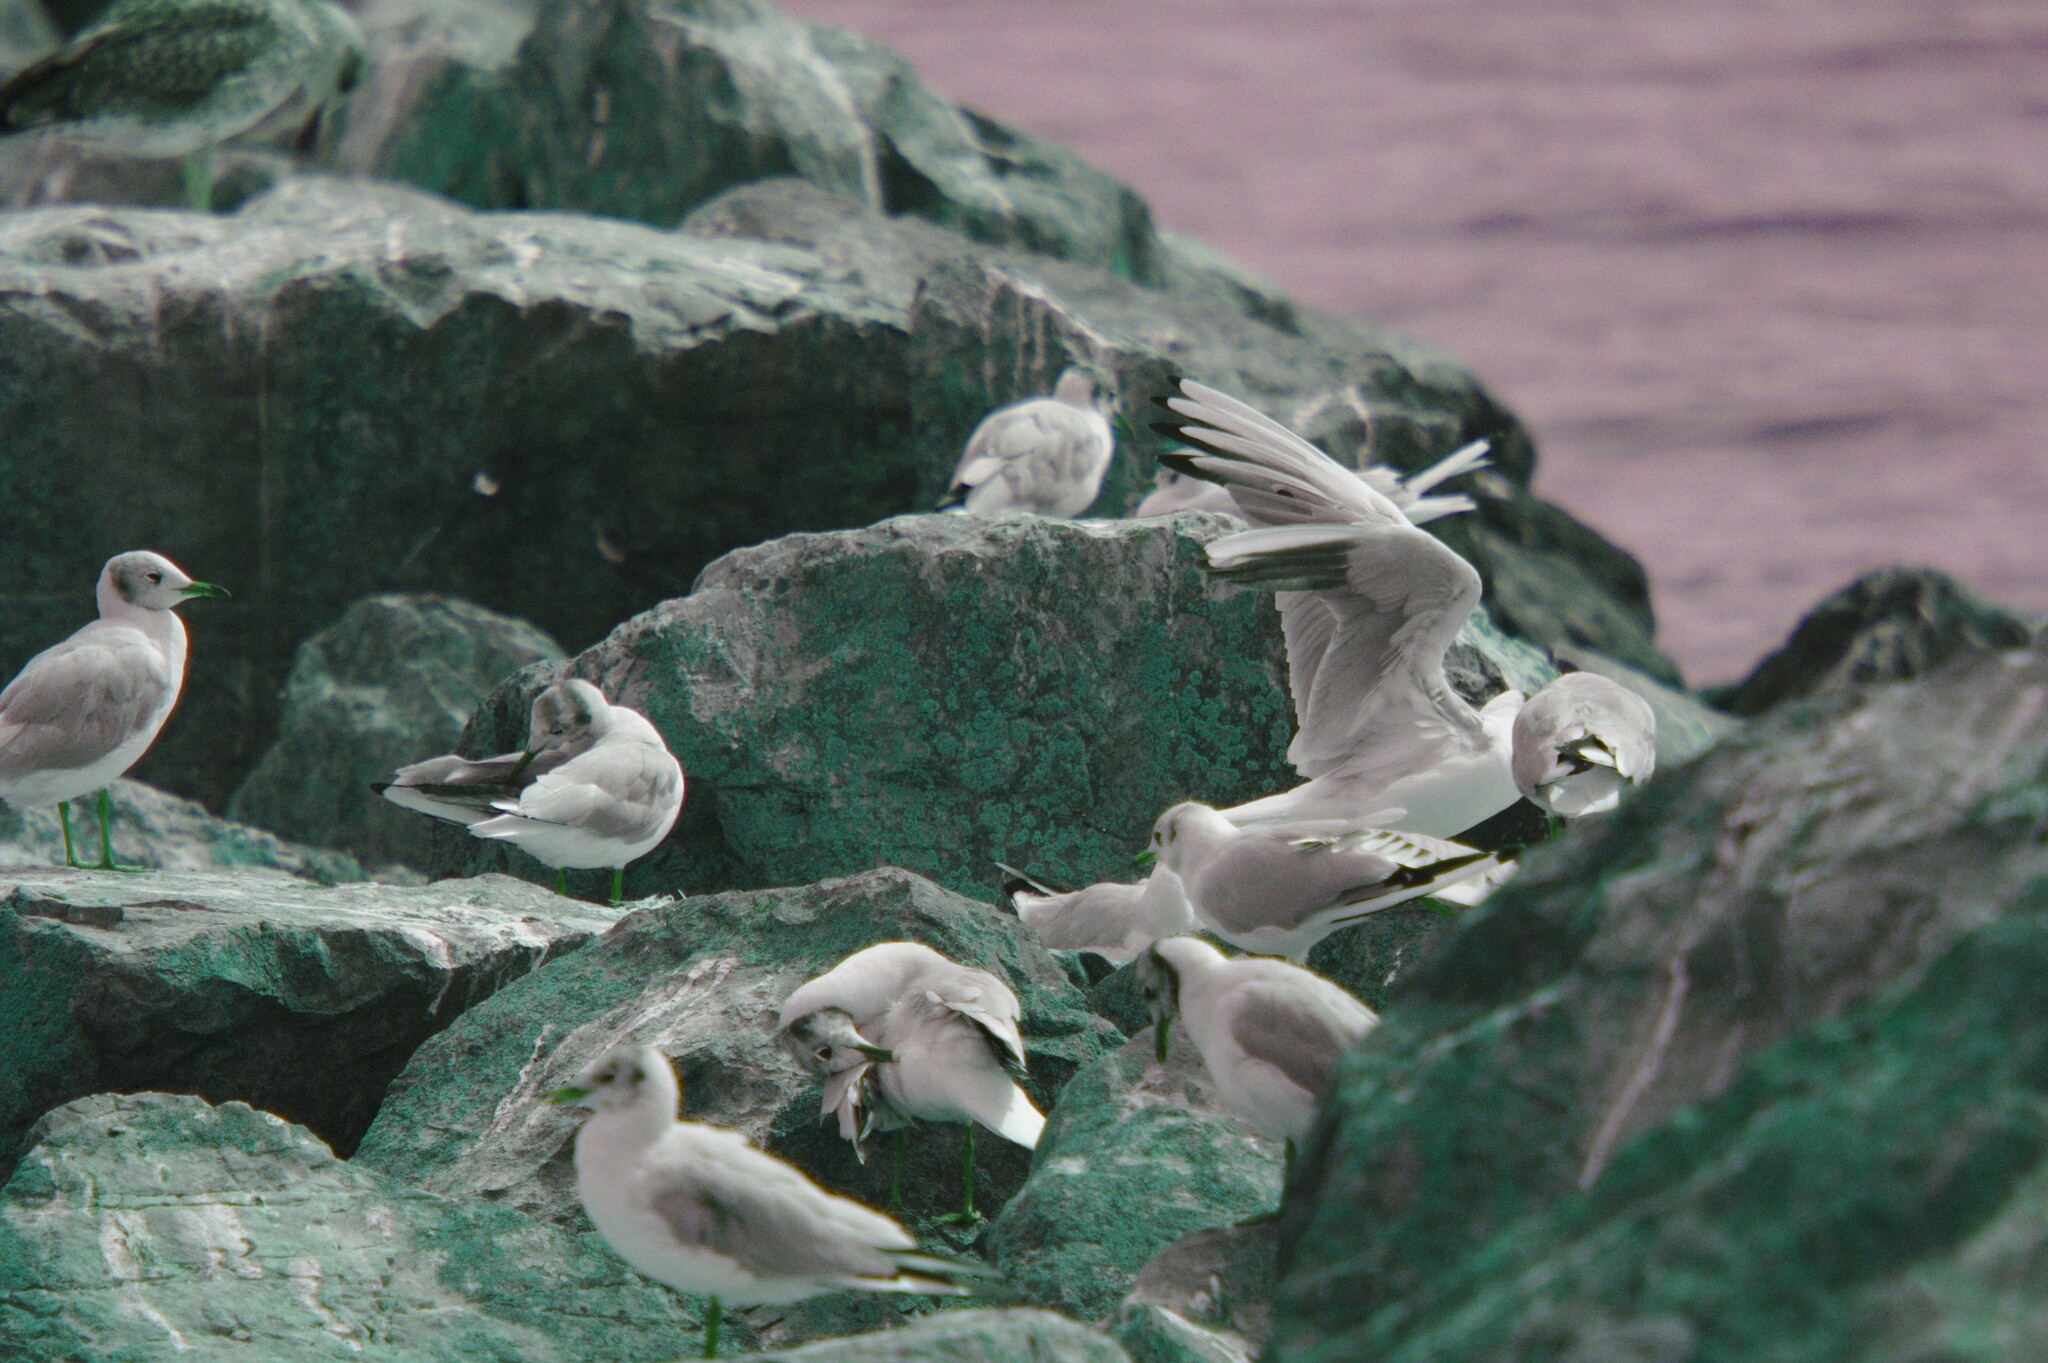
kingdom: Animalia
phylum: Chordata
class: Aves
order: Charadriiformes
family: Laridae
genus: Chroicocephalus
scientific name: Chroicocephalus ridibundus
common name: Black-headed gull
